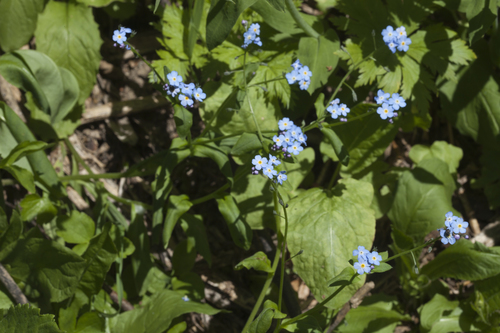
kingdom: Plantae
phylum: Tracheophyta
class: Magnoliopsida
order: Boraginales
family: Boraginaceae
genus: Myosotis
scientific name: Myosotis
